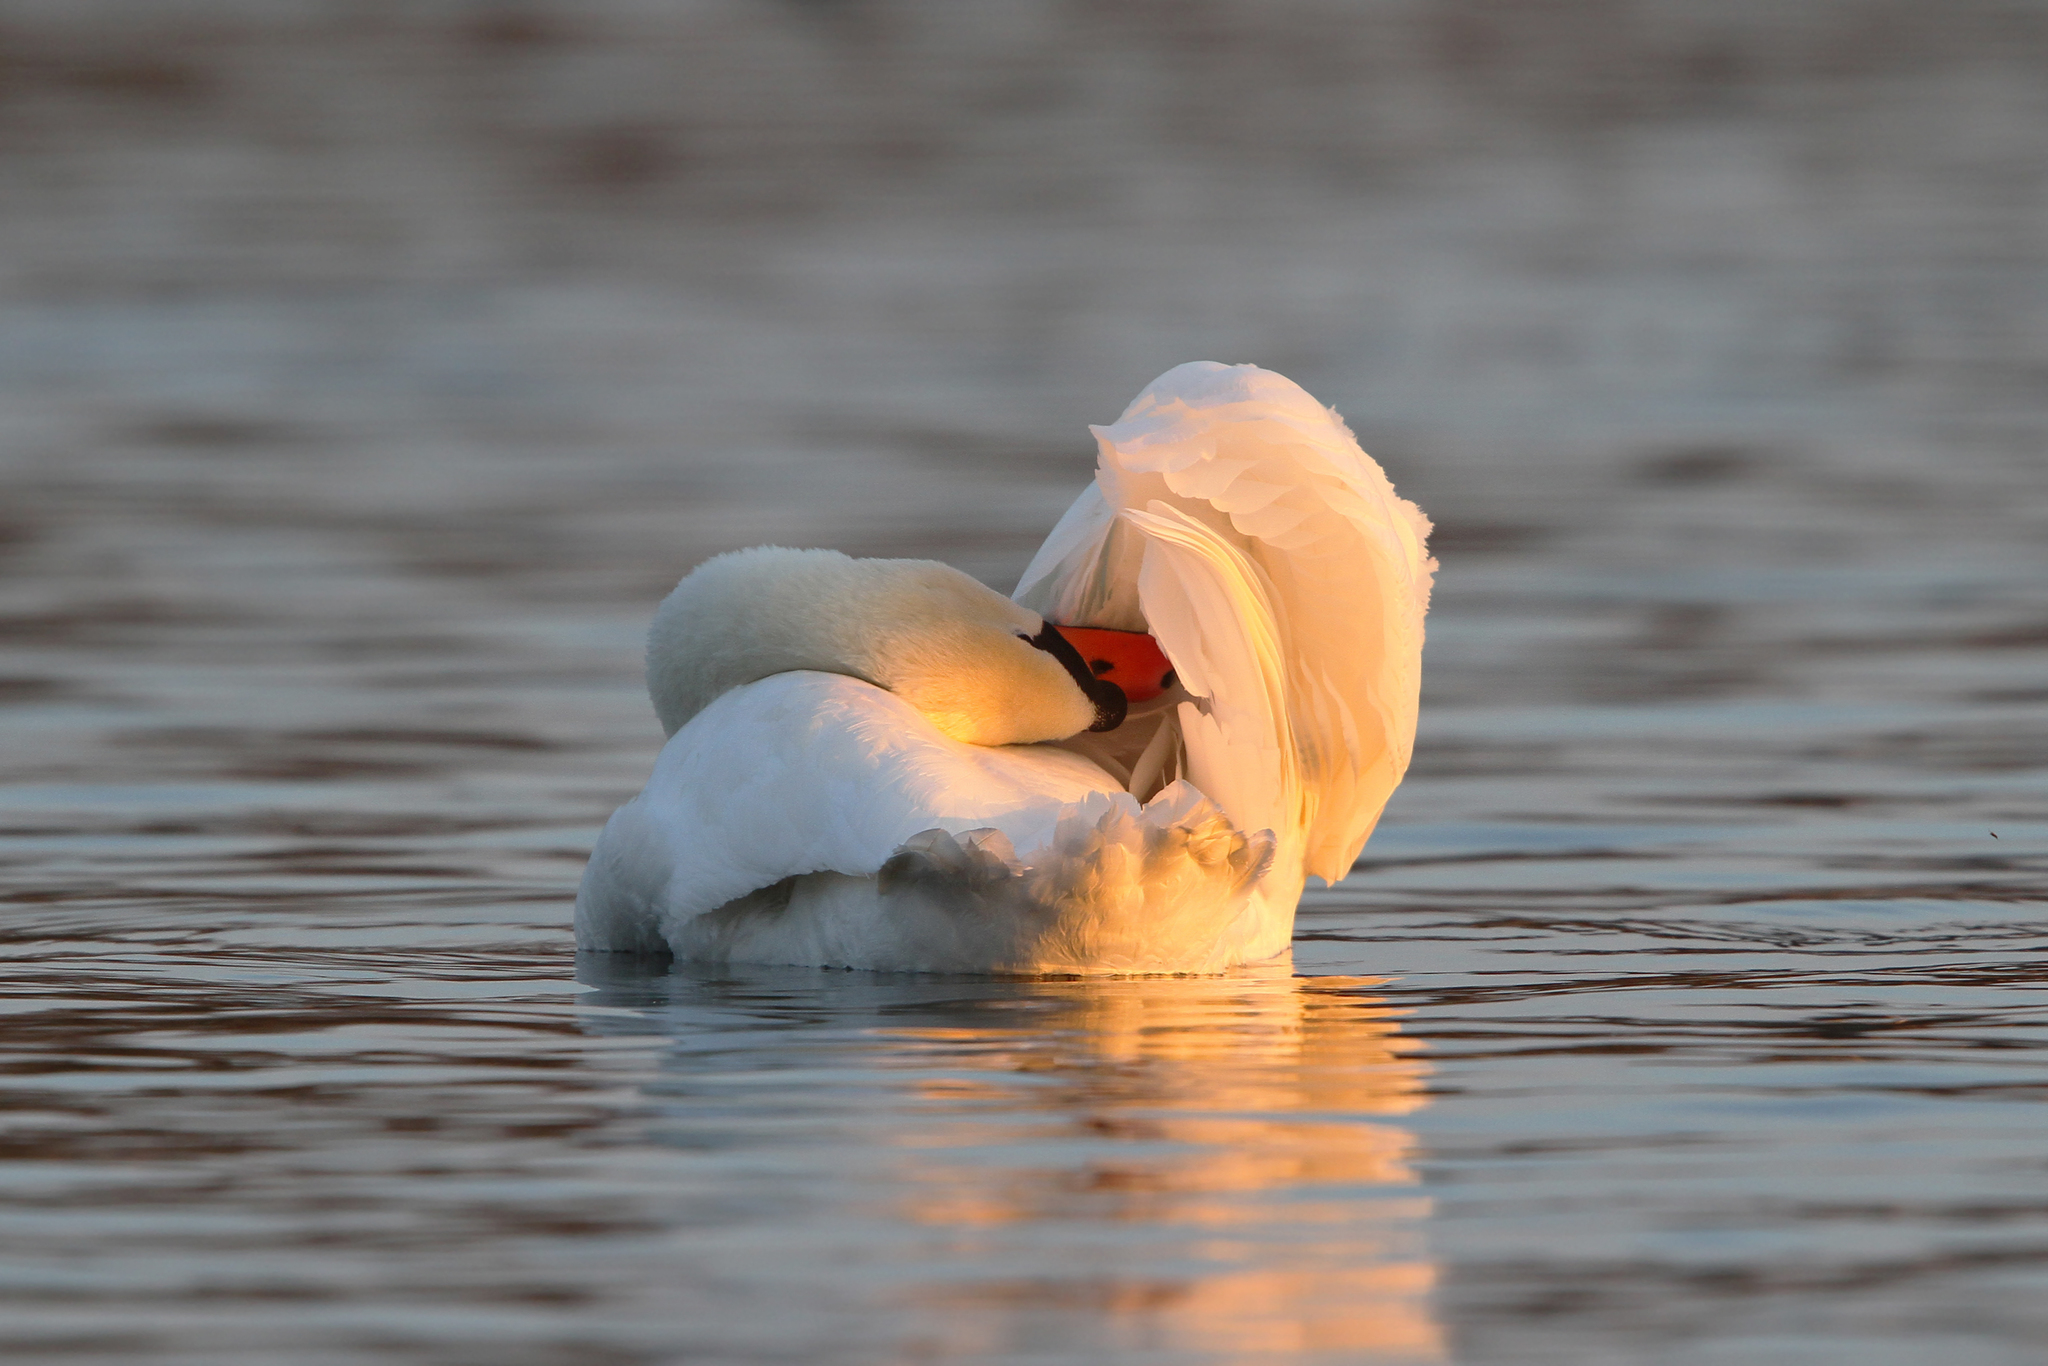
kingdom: Animalia
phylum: Chordata
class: Aves
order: Anseriformes
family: Anatidae
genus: Cygnus
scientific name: Cygnus olor
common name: Mute swan
